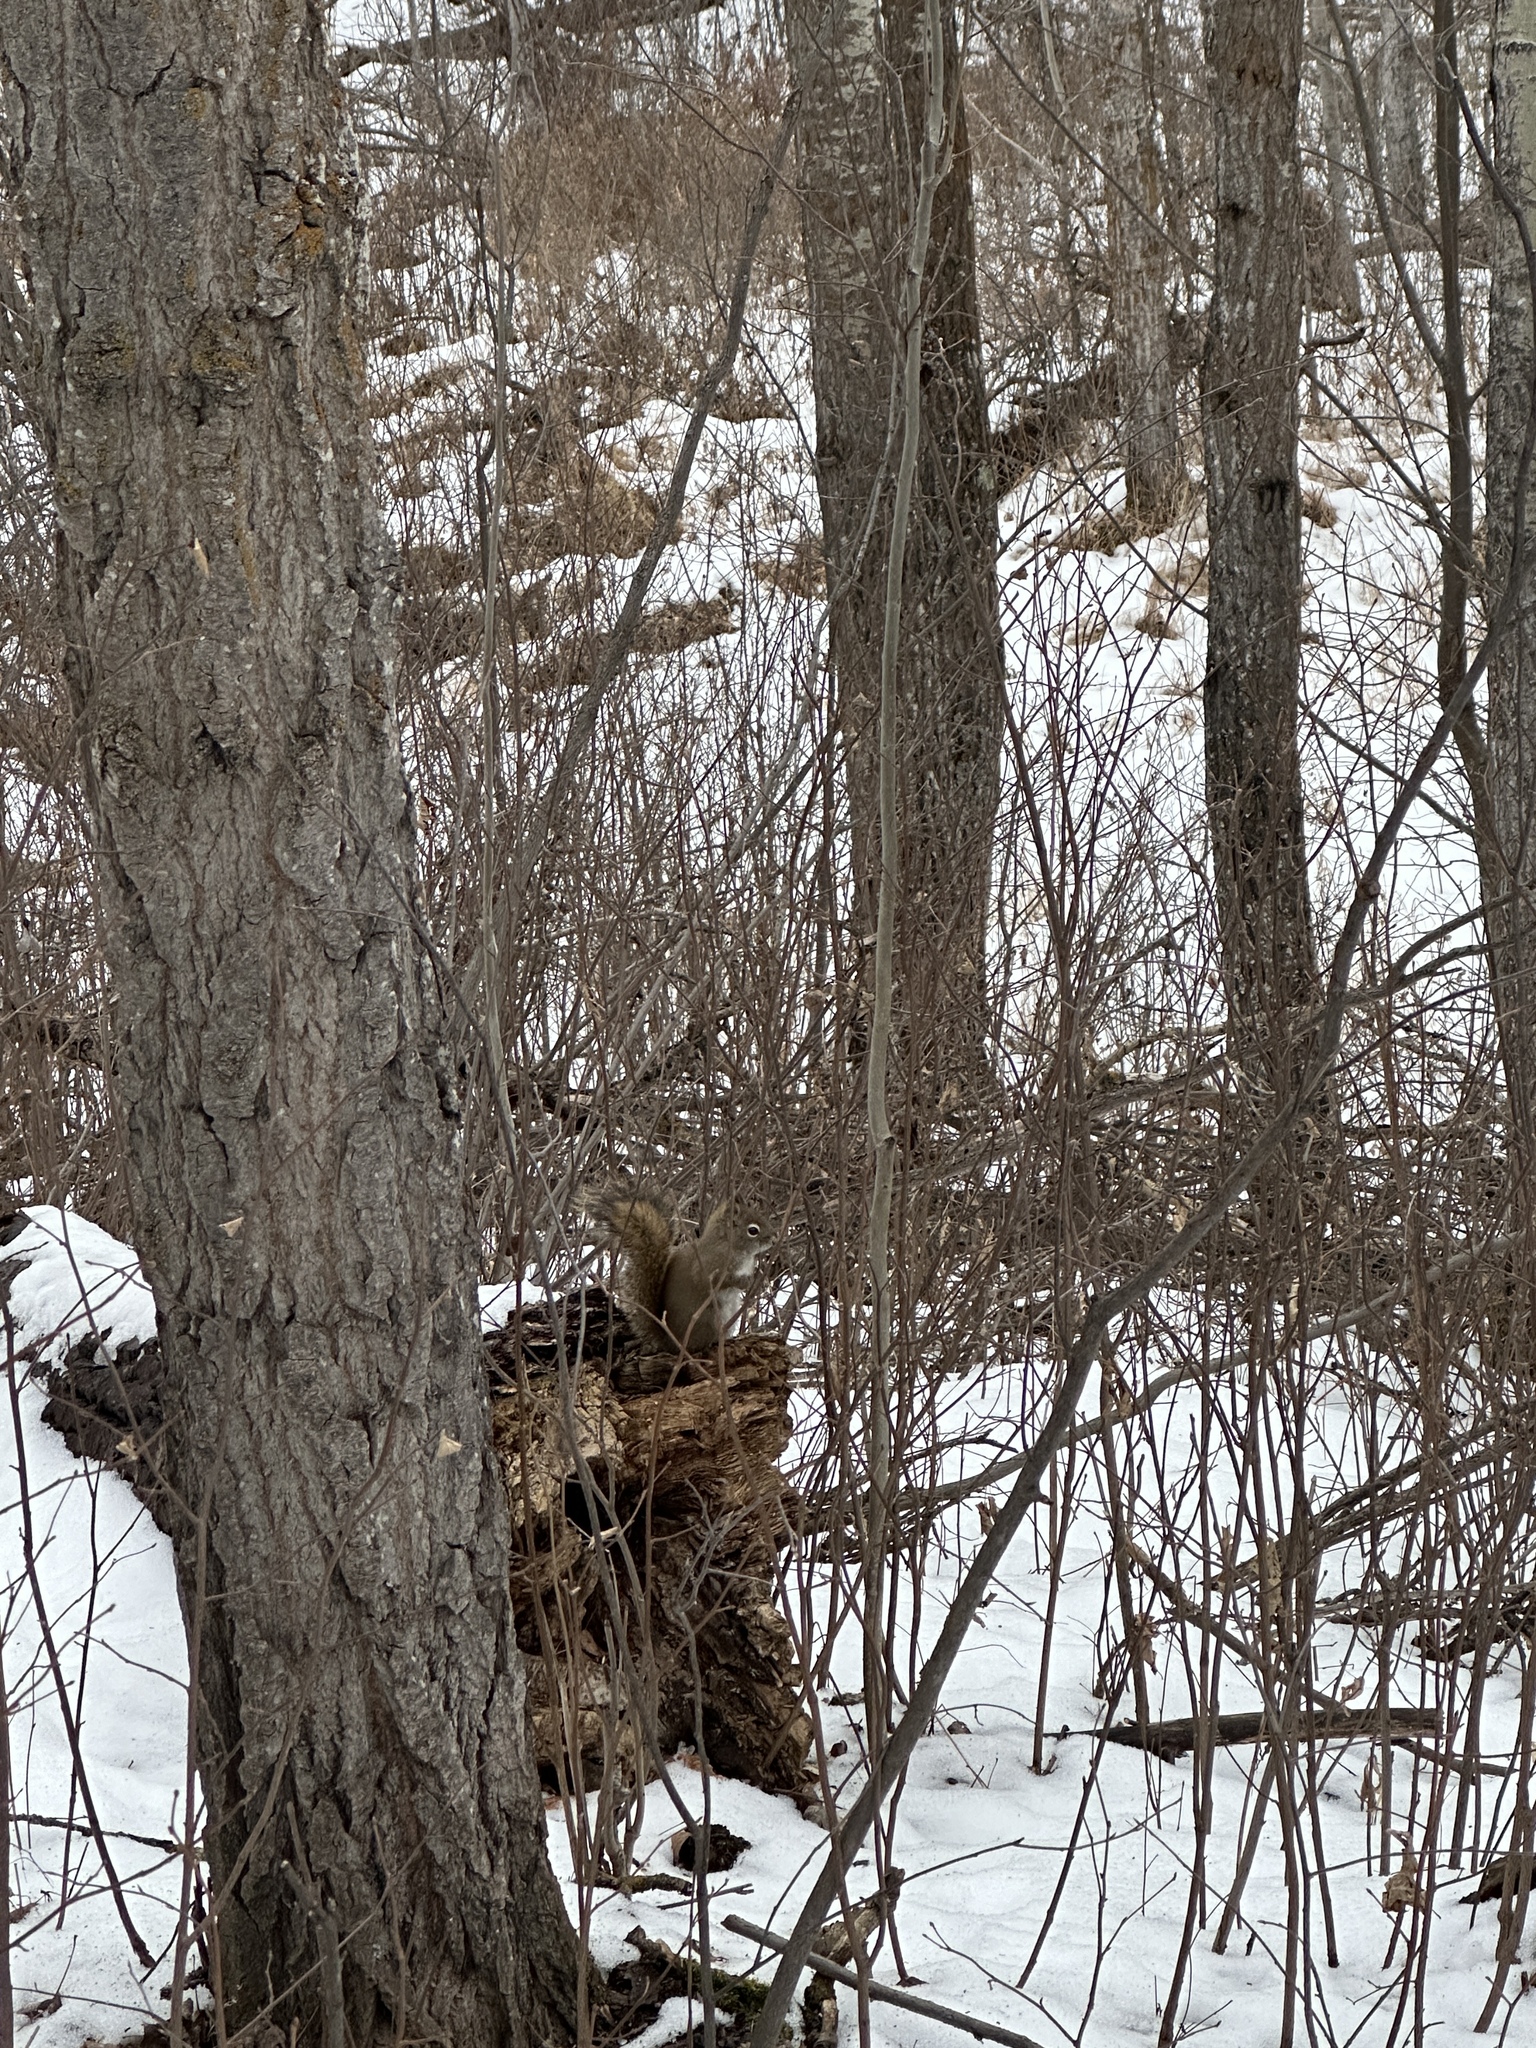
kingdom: Animalia
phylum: Chordata
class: Mammalia
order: Rodentia
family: Sciuridae
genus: Tamiasciurus
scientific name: Tamiasciurus hudsonicus
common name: Red squirrel
